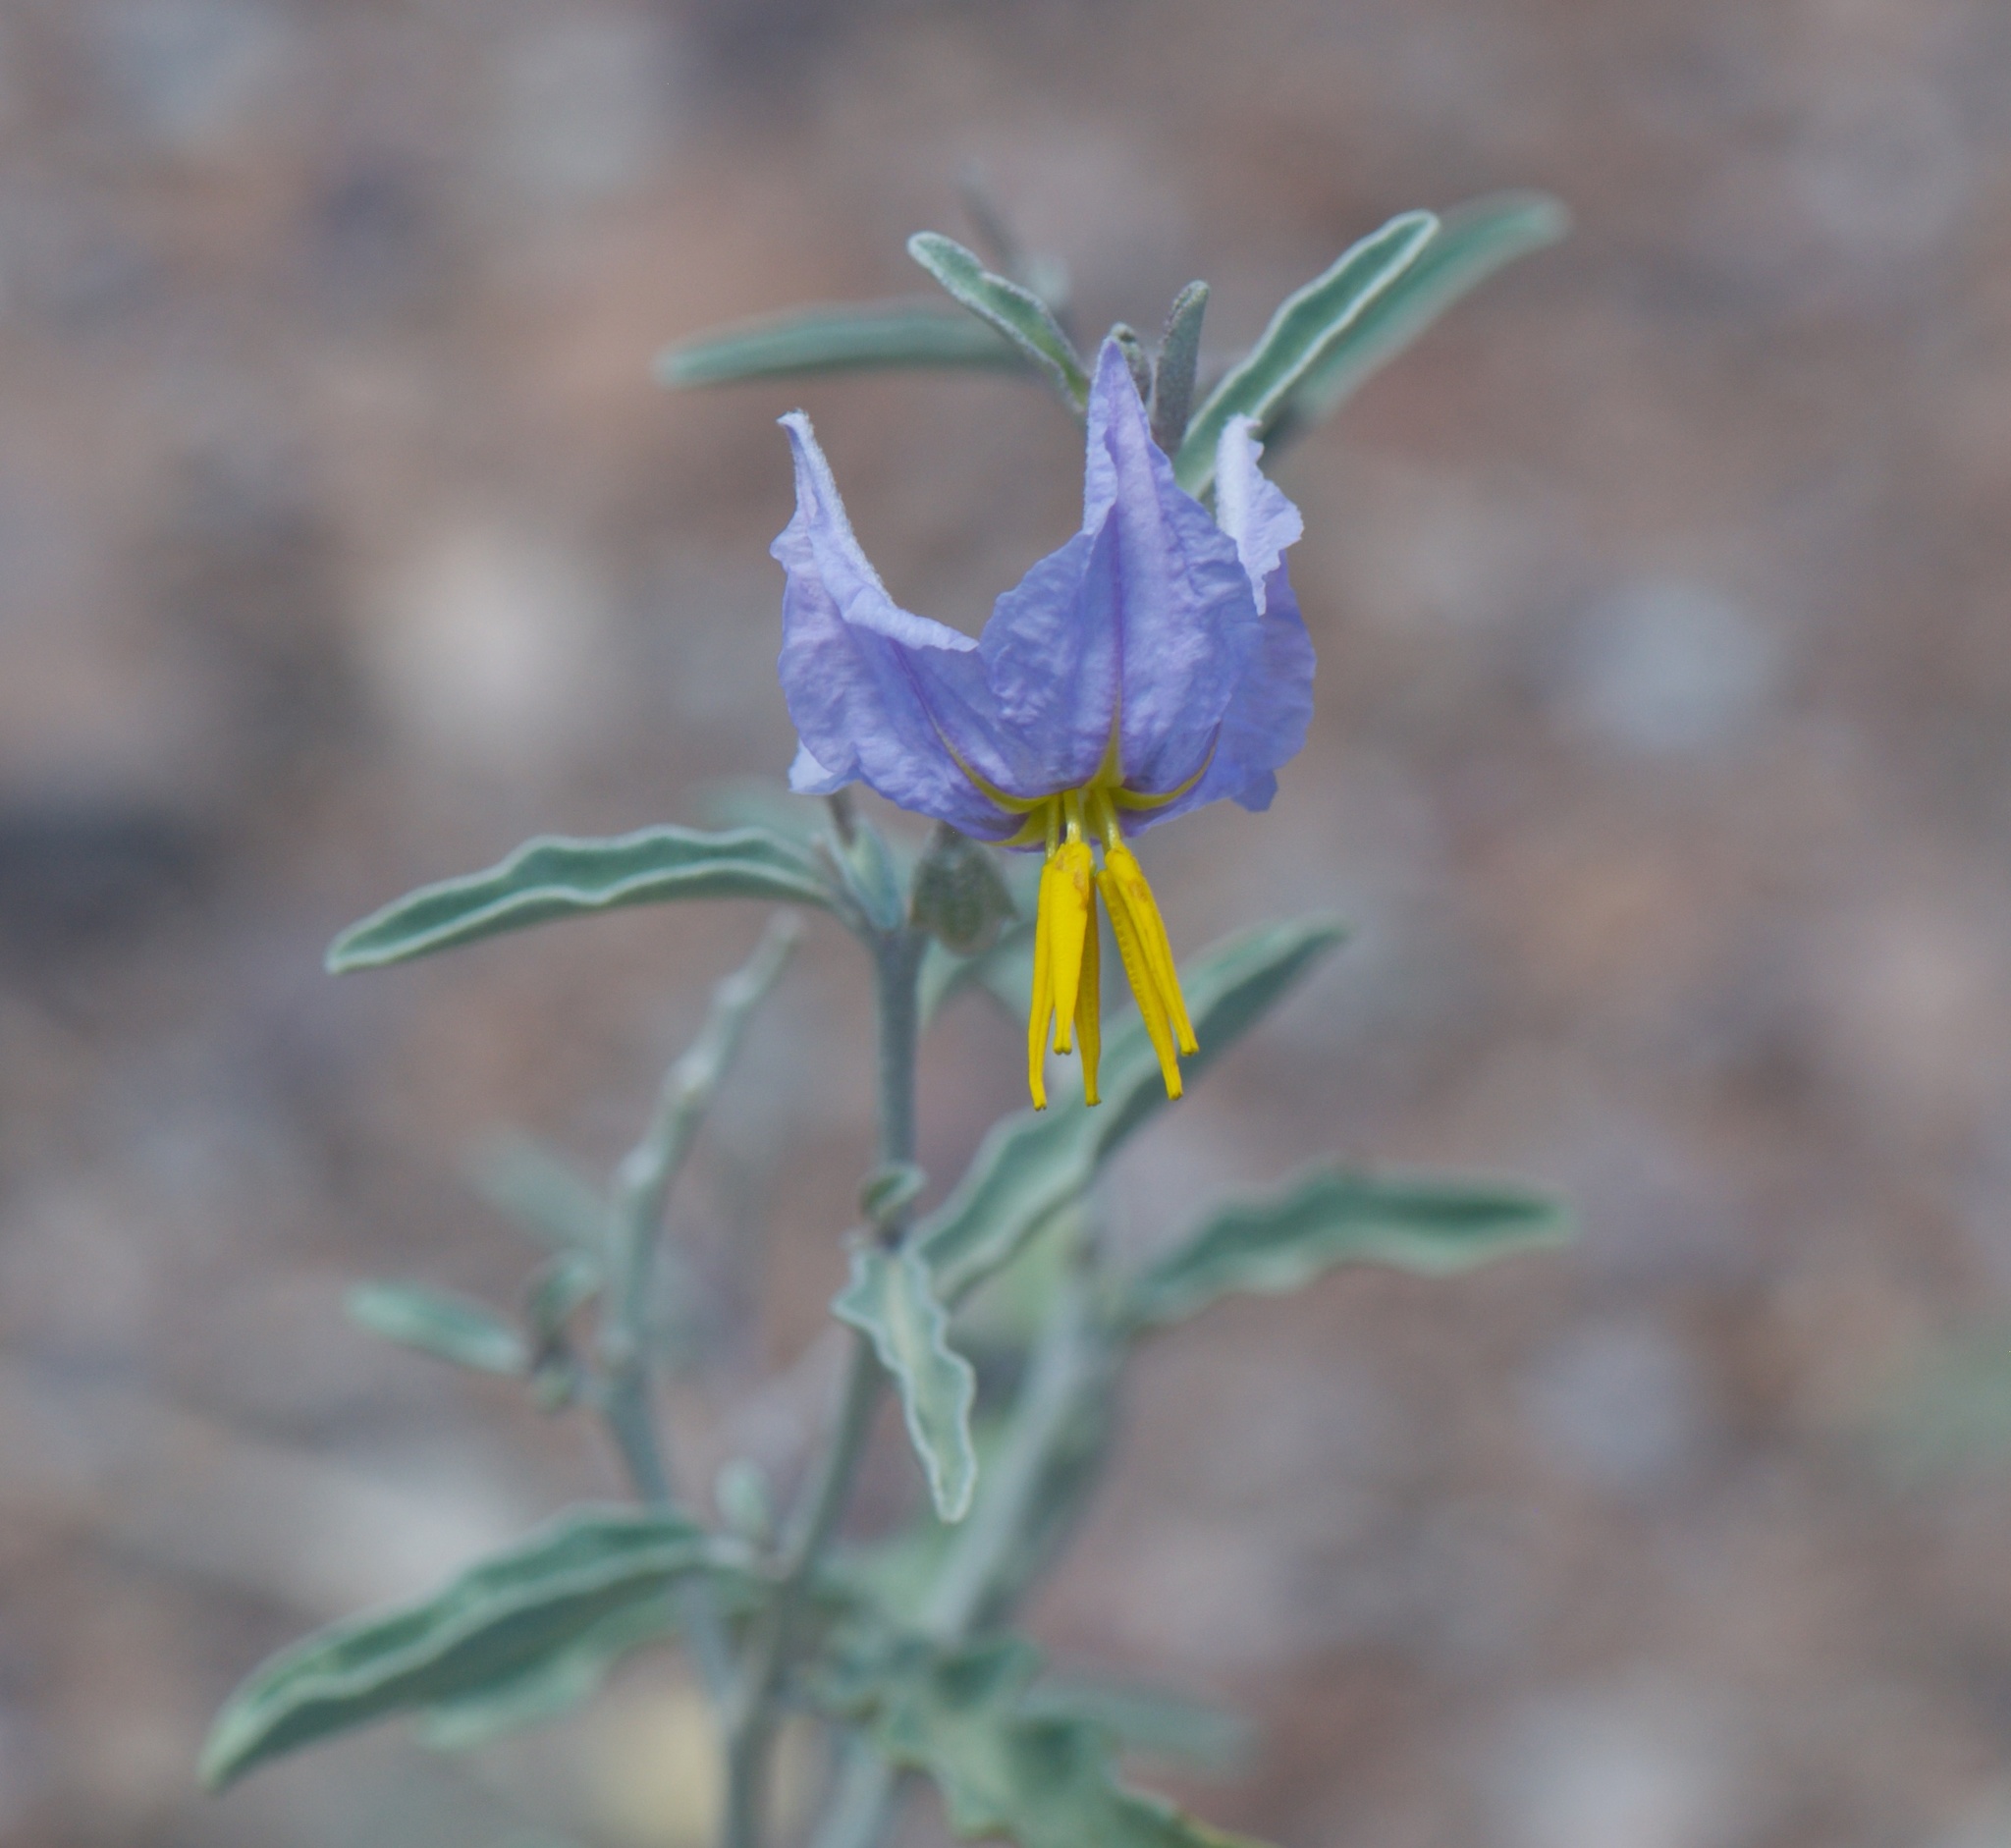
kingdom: Plantae
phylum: Tracheophyta
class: Magnoliopsida
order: Solanales
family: Solanaceae
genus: Solanum
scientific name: Solanum elaeagnifolium
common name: Silverleaf nightshade
